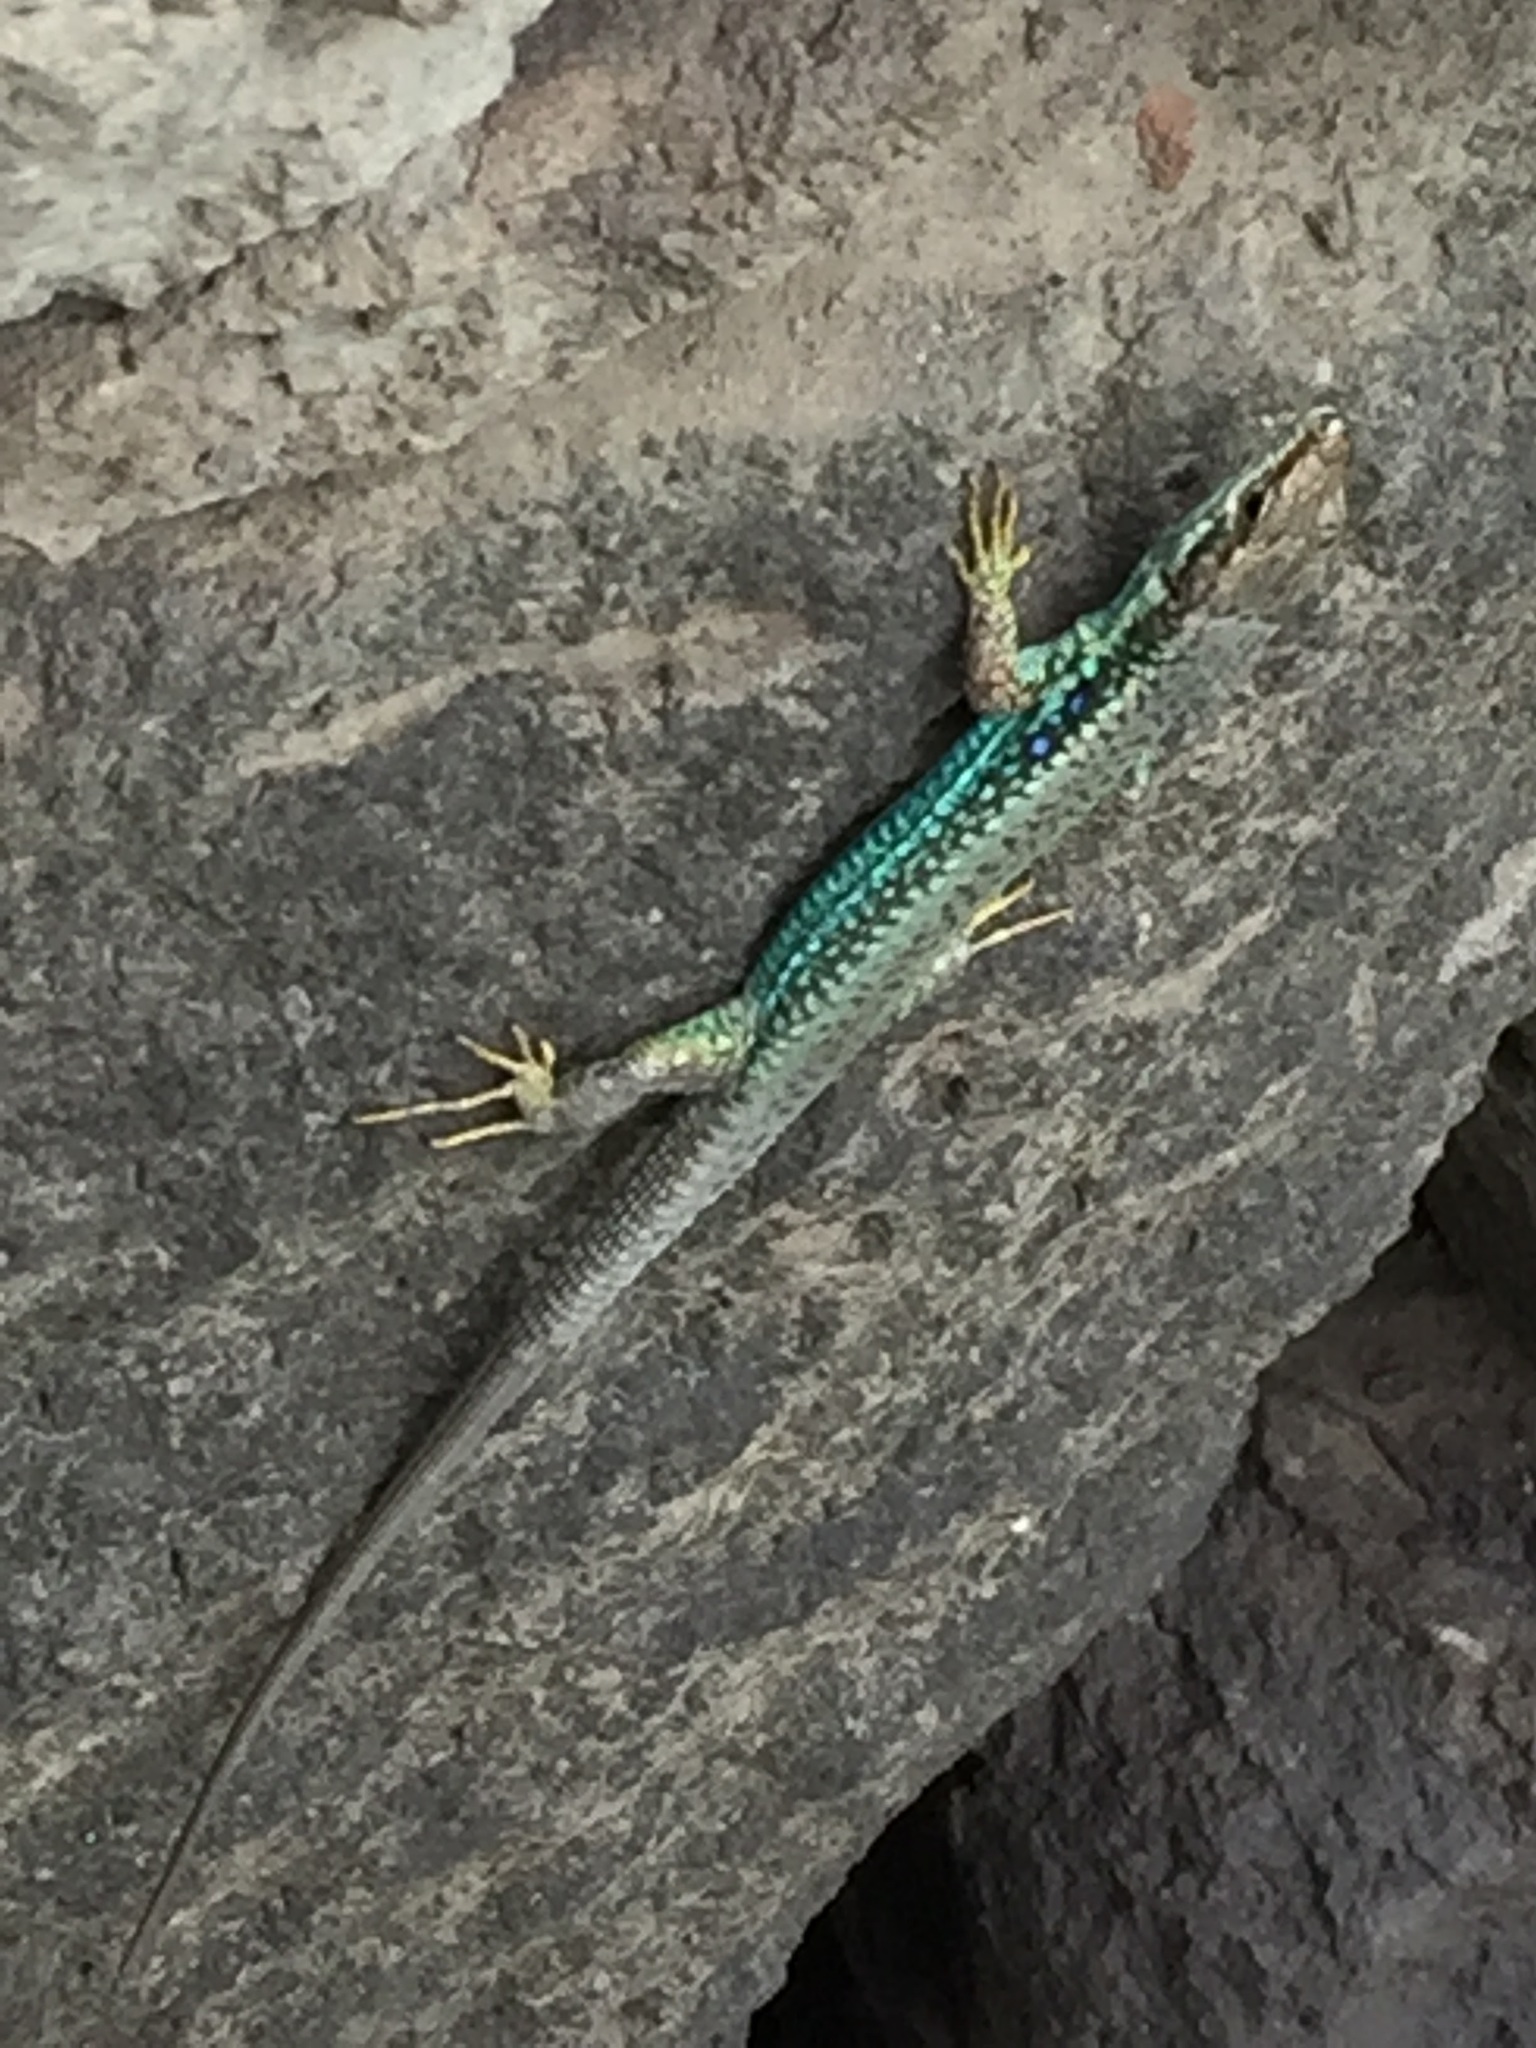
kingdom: Animalia
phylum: Chordata
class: Squamata
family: Lacertidae
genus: Darevskia
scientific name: Darevskia raddei
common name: Radde's lizard
